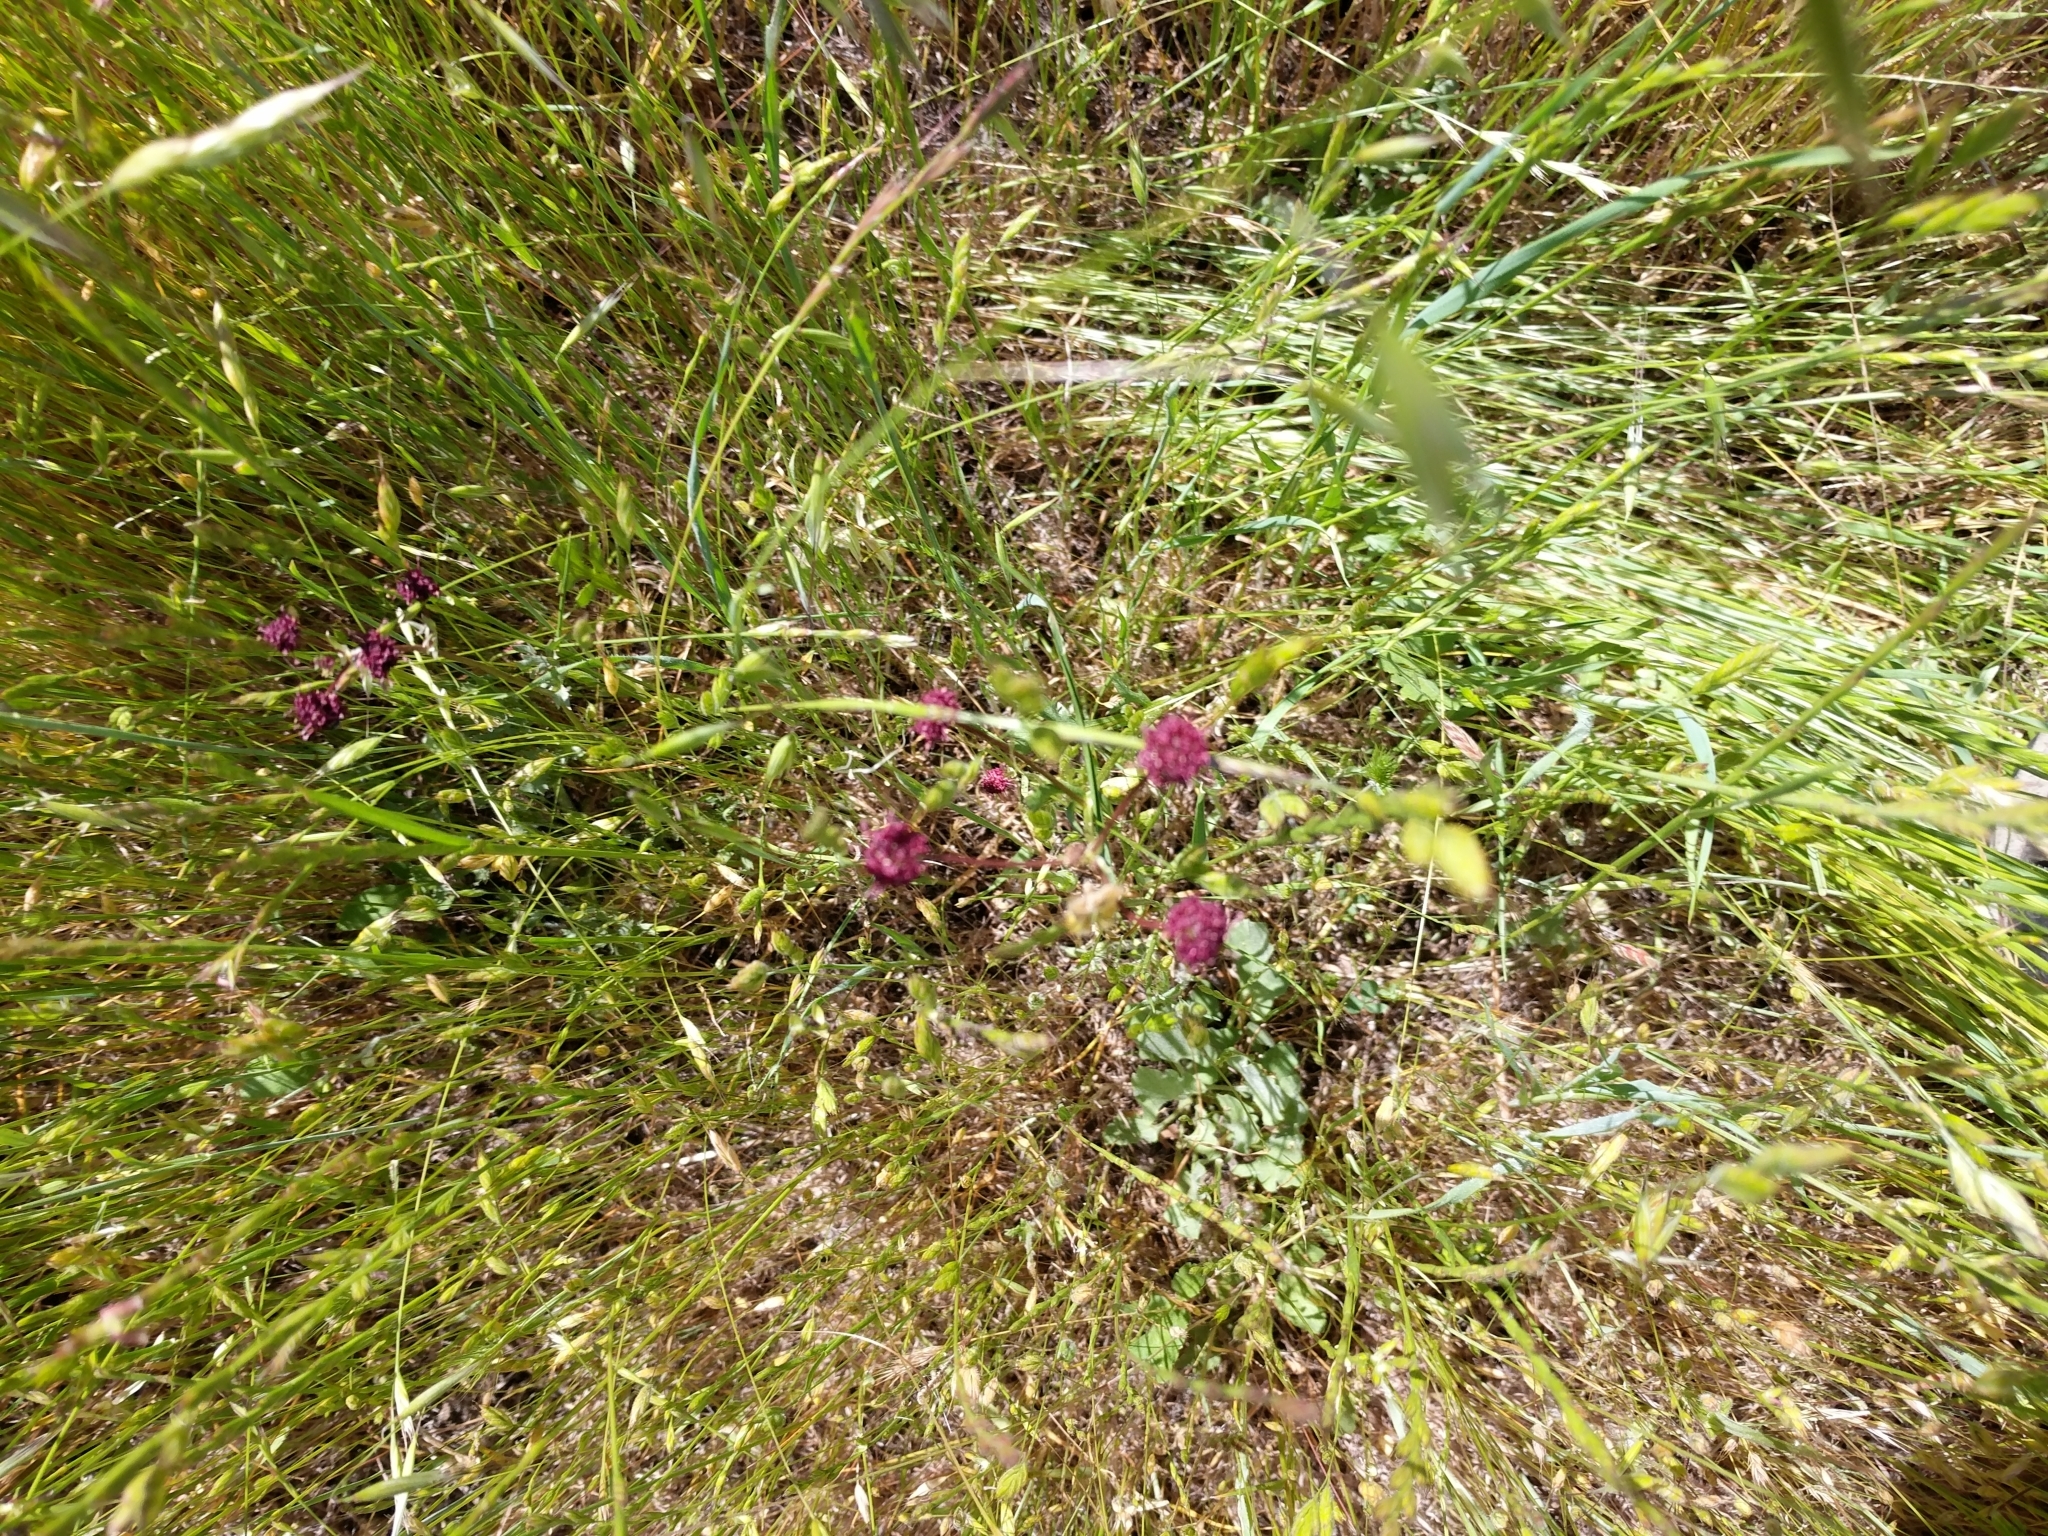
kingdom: Plantae
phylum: Tracheophyta
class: Magnoliopsida
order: Apiales
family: Apiaceae
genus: Sanicula
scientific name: Sanicula bipinnatifida
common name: Shoe-buttons
